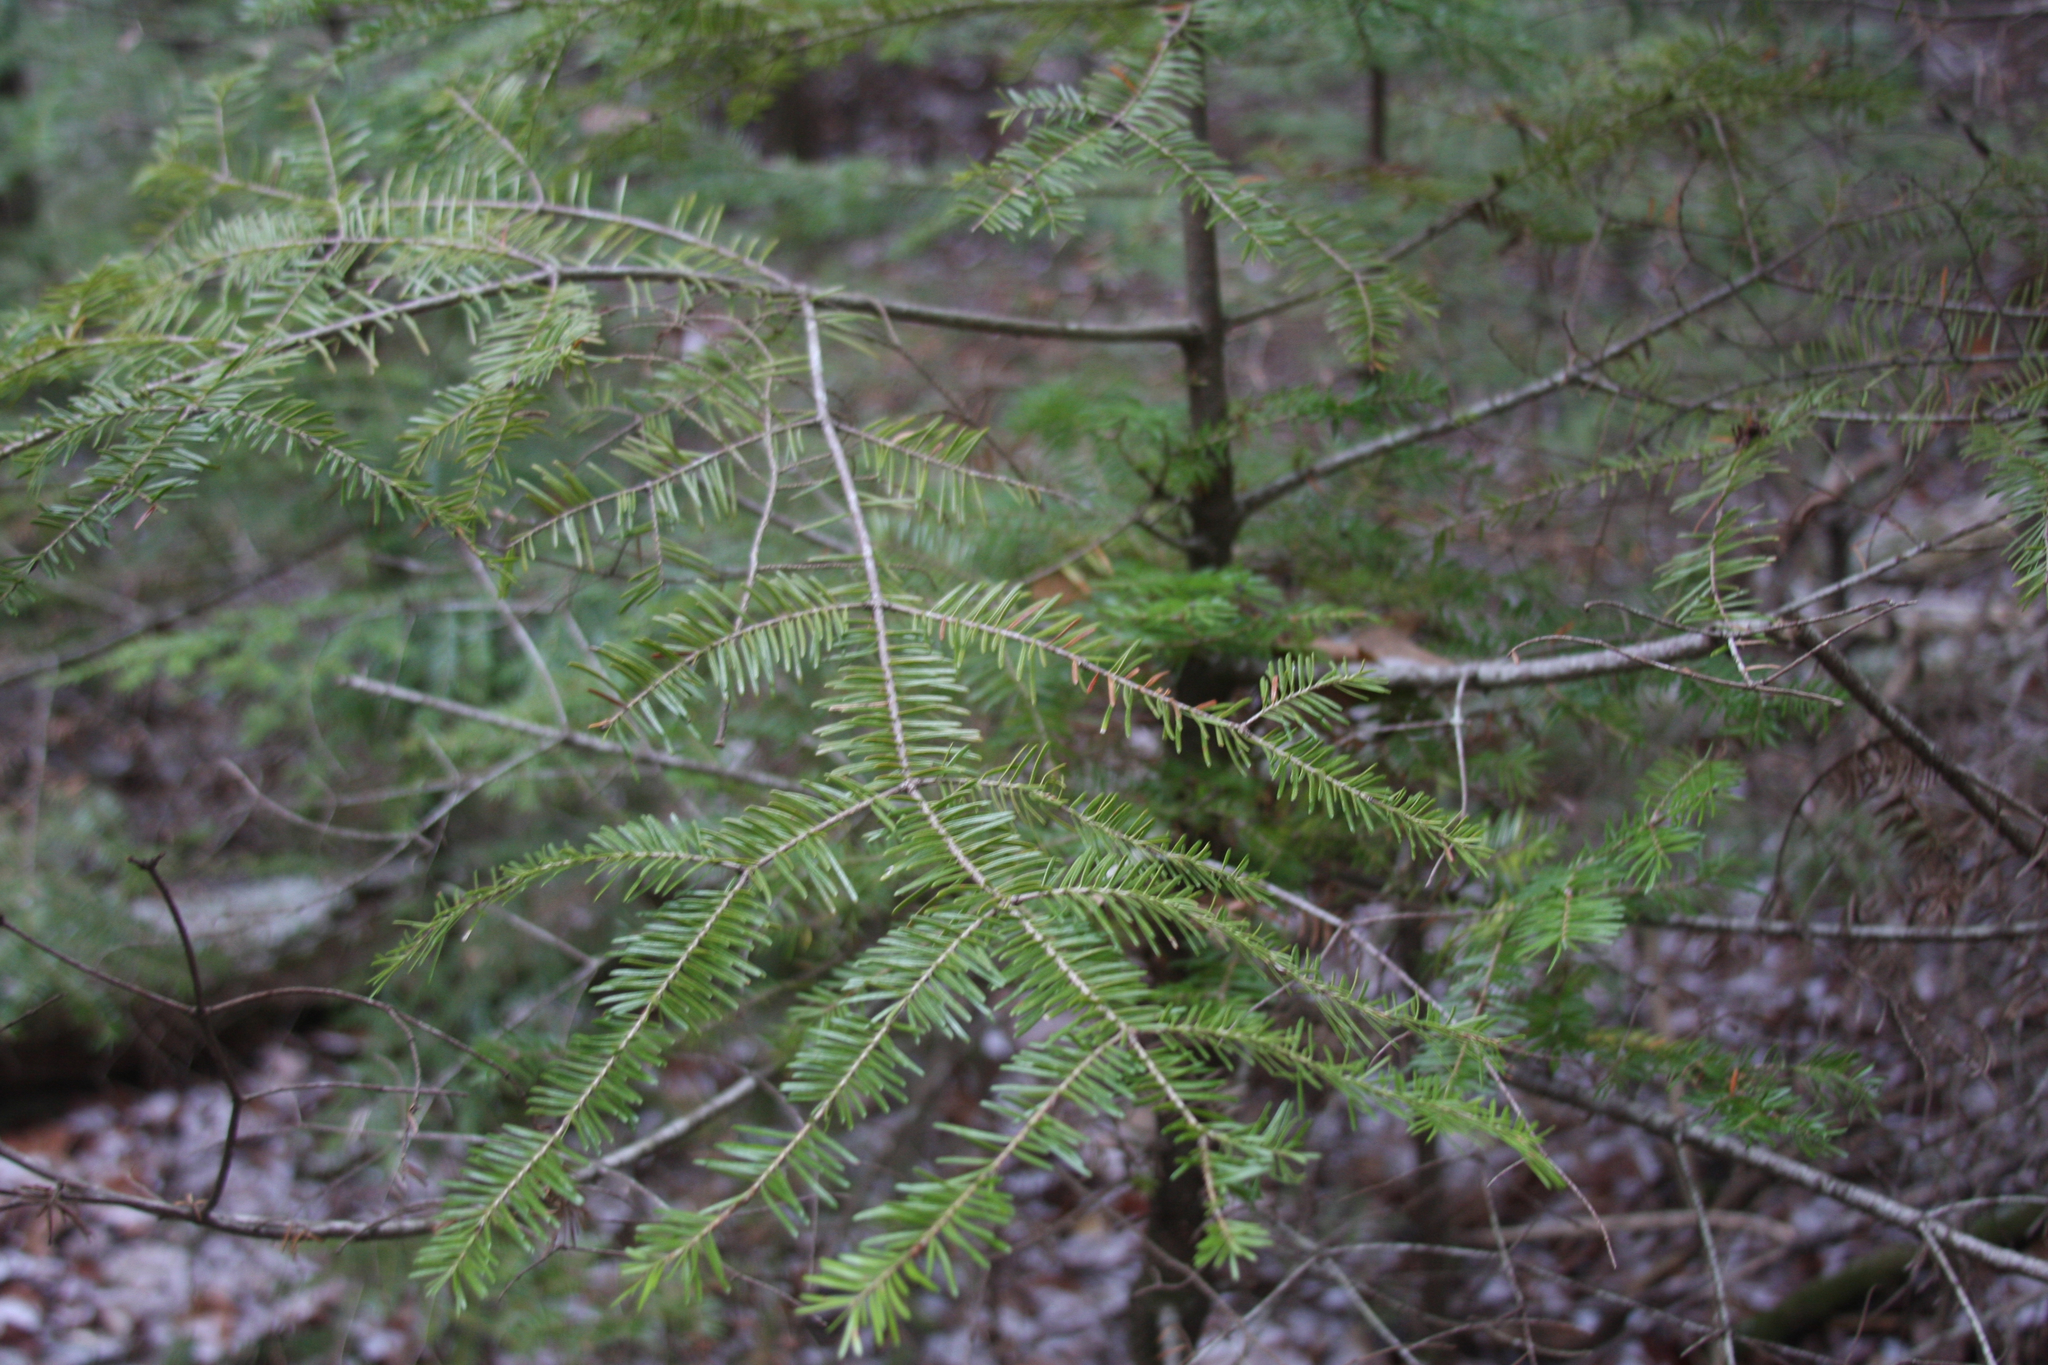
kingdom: Plantae
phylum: Tracheophyta
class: Pinopsida
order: Pinales
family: Pinaceae
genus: Abies
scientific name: Abies balsamea
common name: Balsam fir
